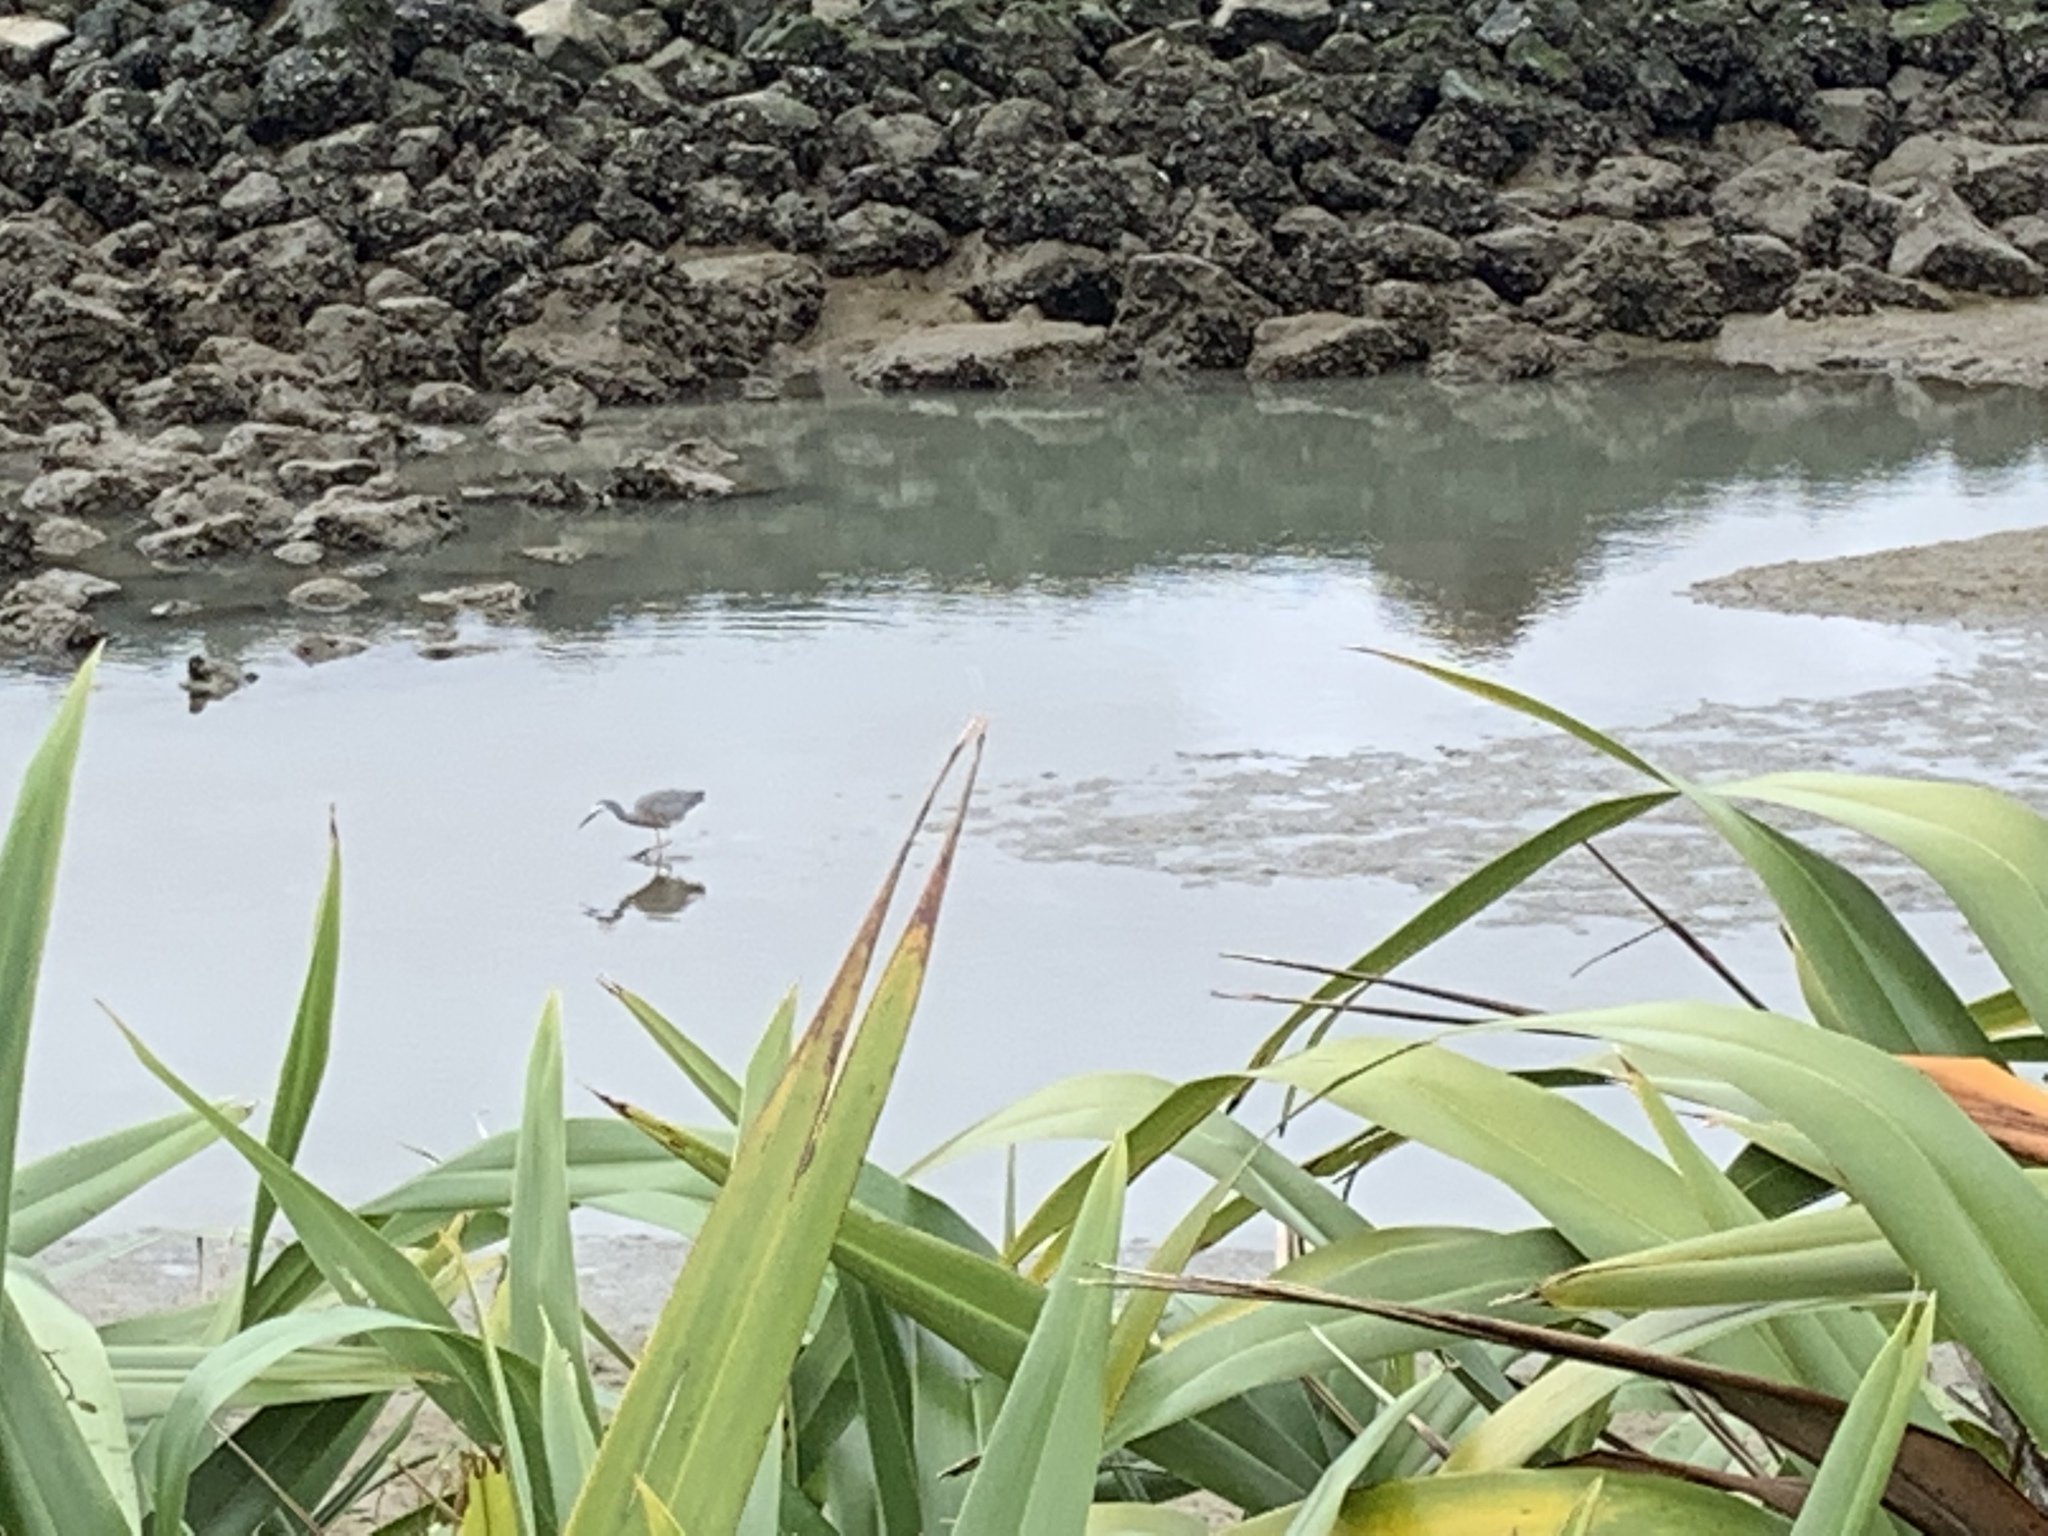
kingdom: Animalia
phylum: Chordata
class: Aves
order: Pelecaniformes
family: Ardeidae
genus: Egretta
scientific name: Egretta novaehollandiae
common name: White-faced heron
